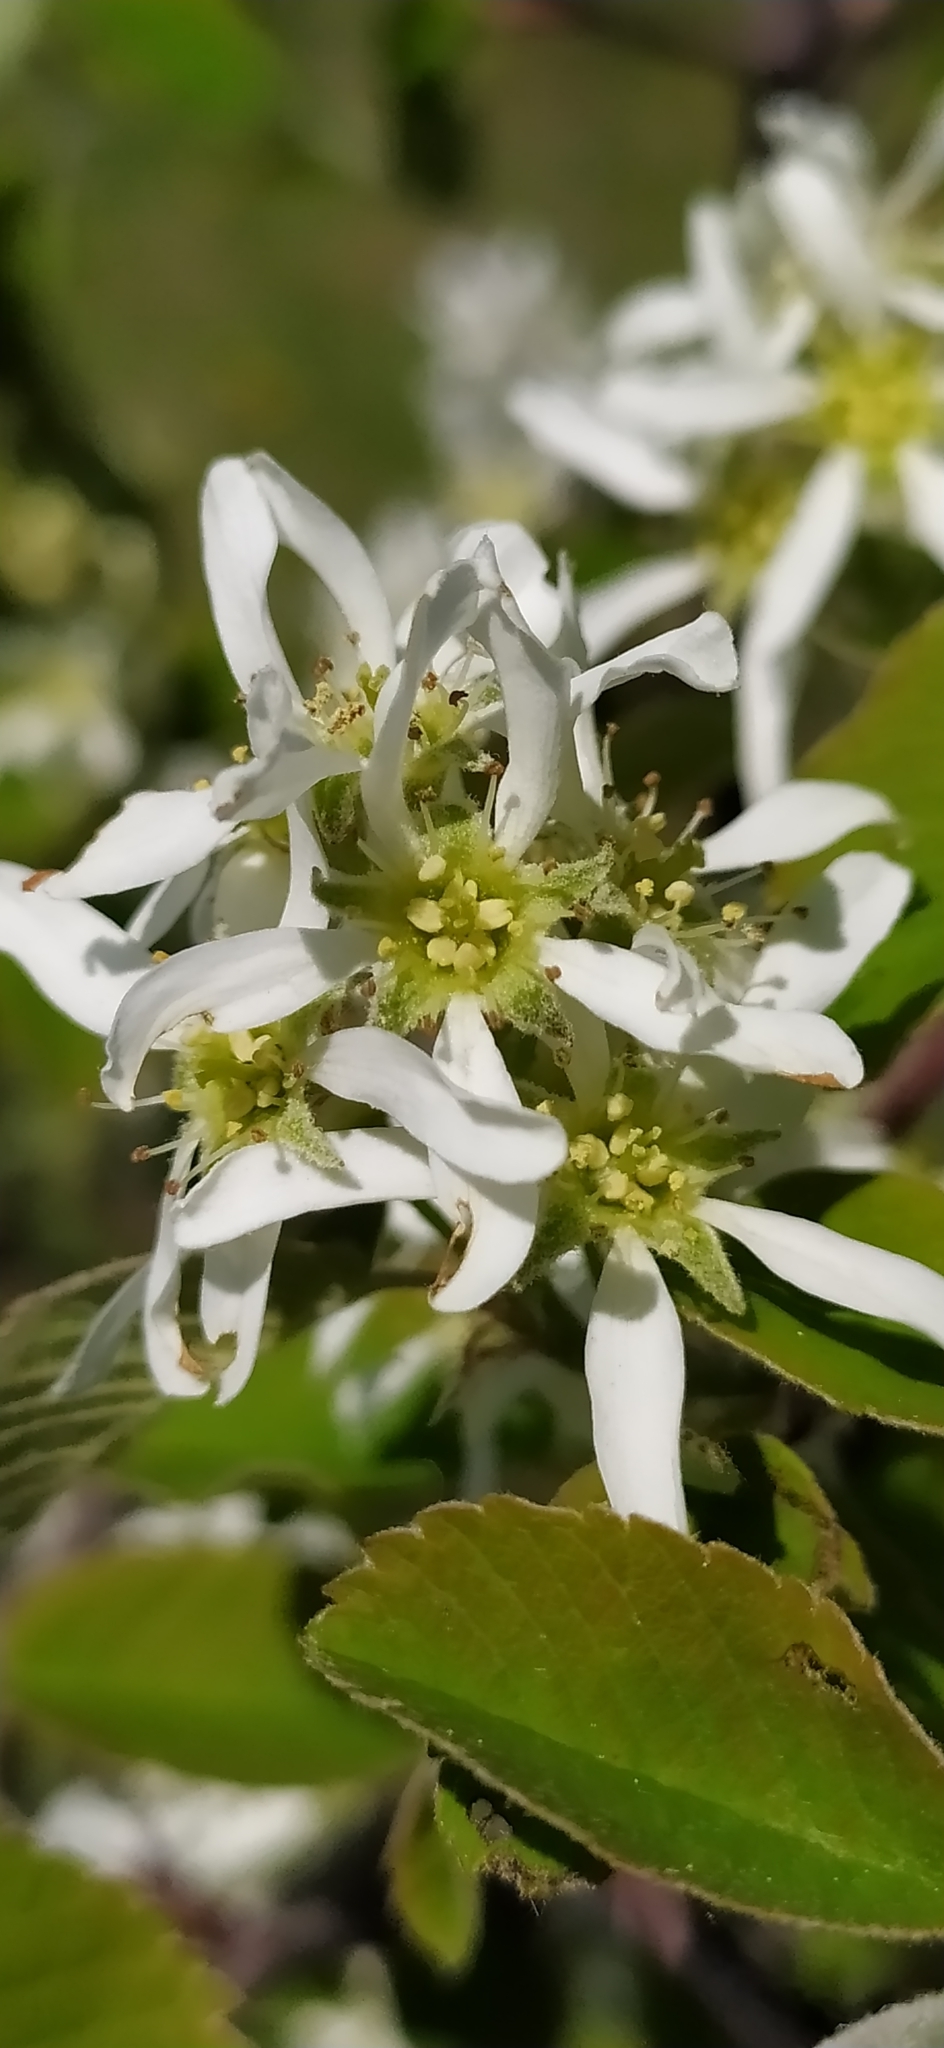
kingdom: Plantae
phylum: Tracheophyta
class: Magnoliopsida
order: Rosales
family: Rosaceae
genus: Amelanchier
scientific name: Amelanchier alnifolia
